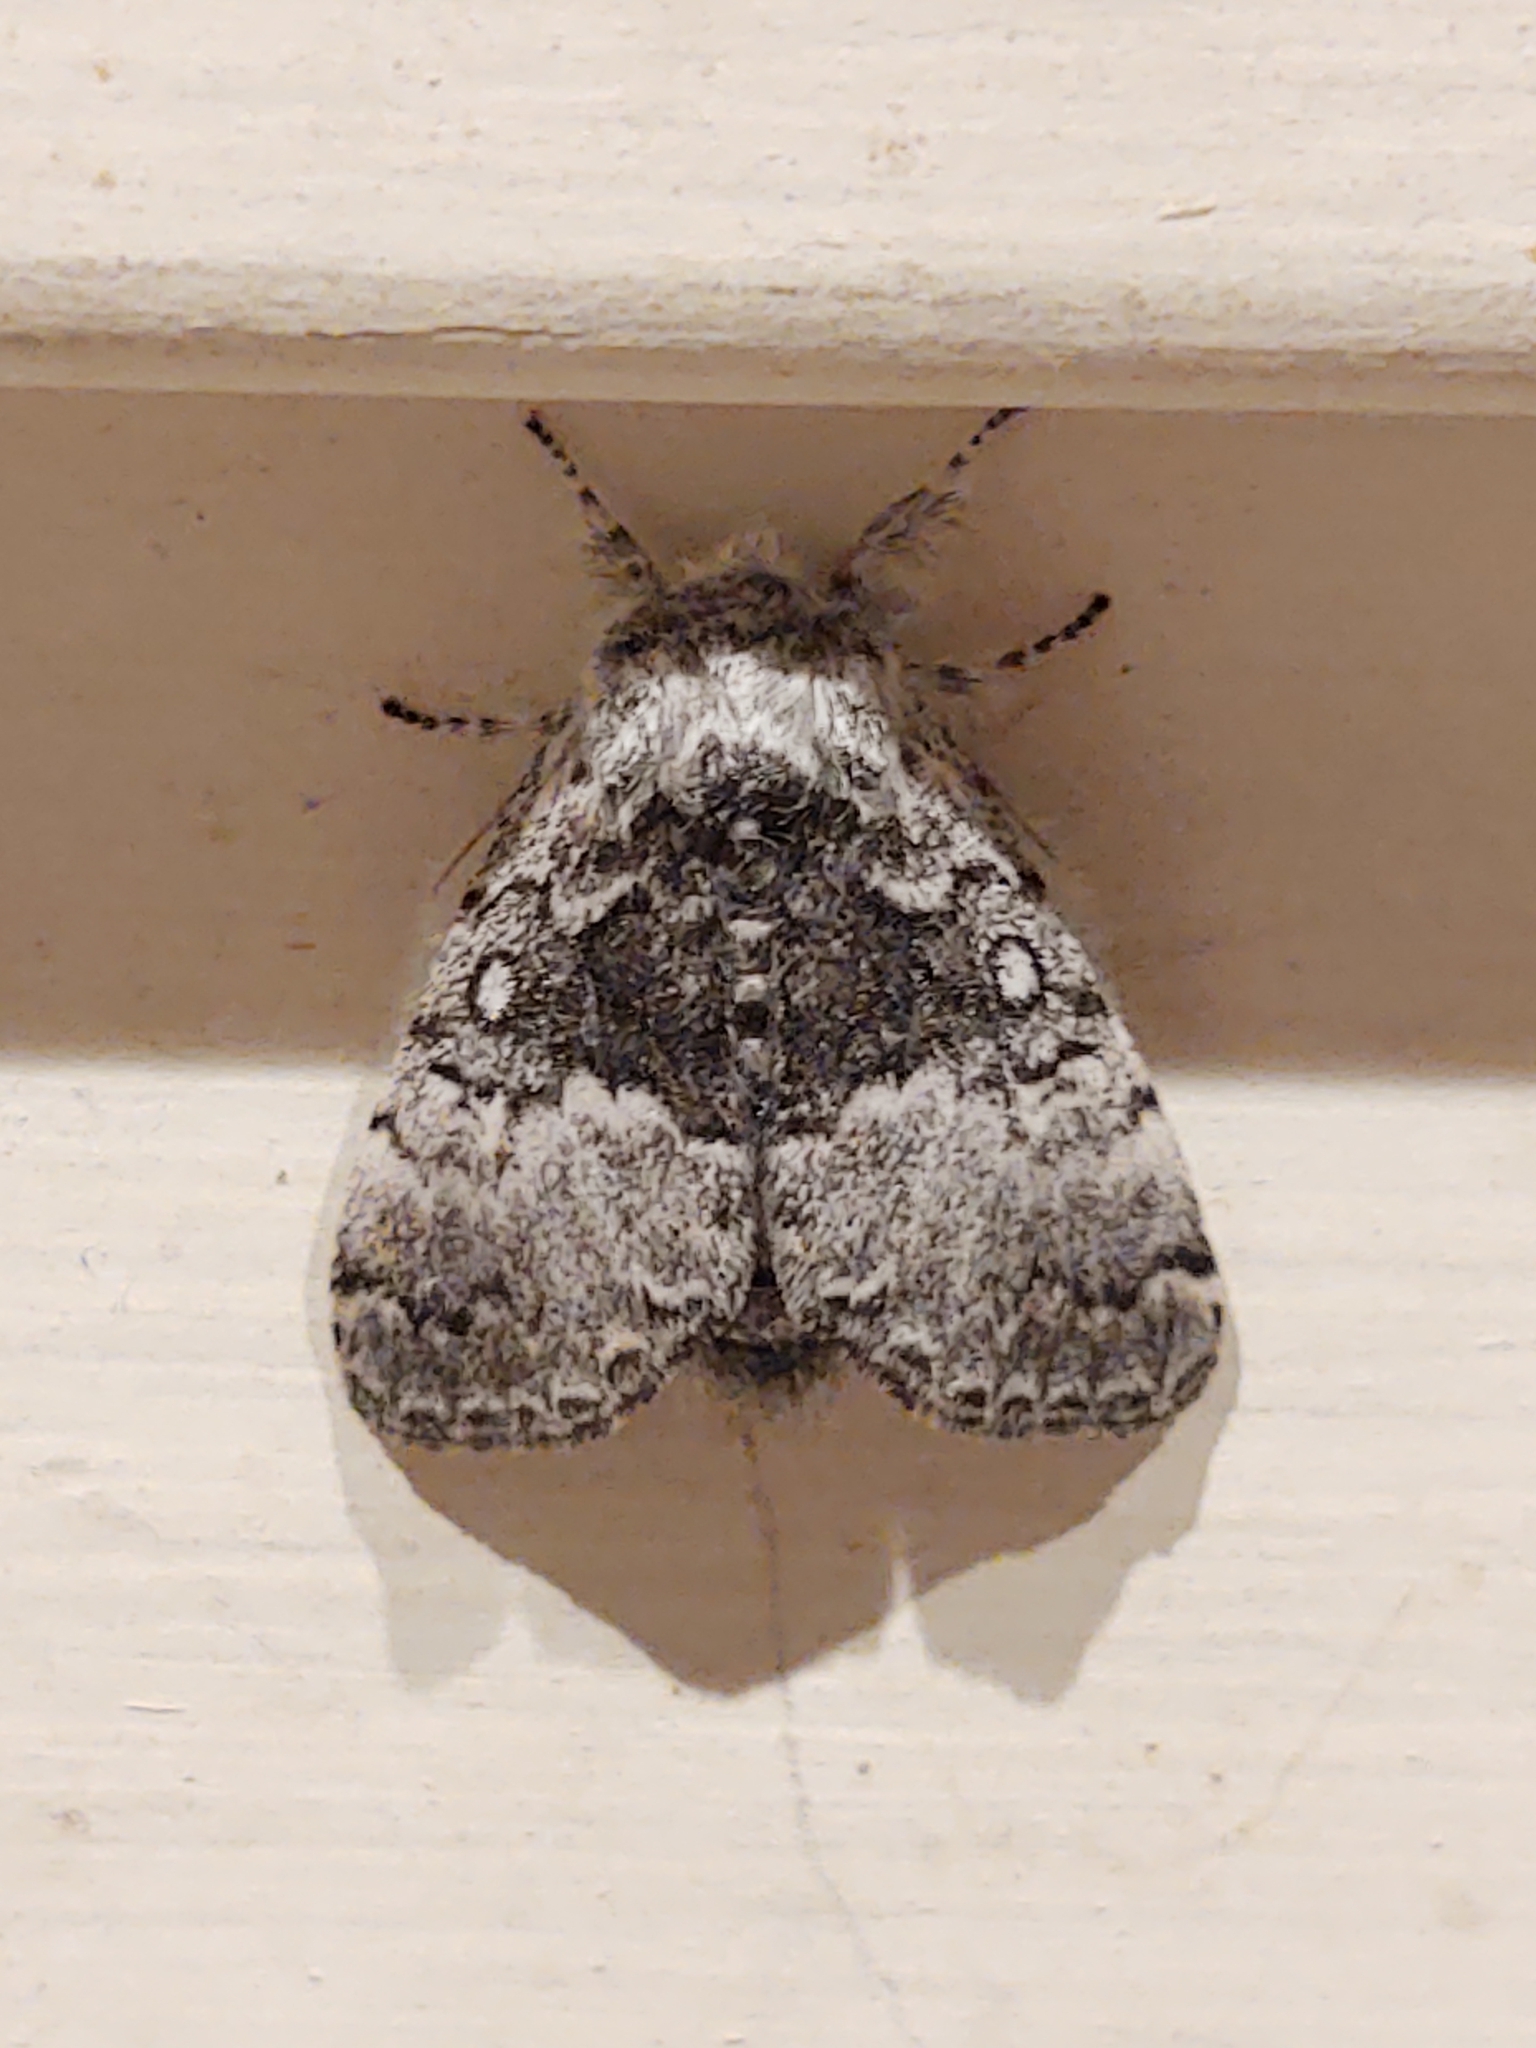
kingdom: Animalia
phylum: Arthropoda
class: Insecta
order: Lepidoptera
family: Noctuidae
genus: Colocasia
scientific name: Colocasia flavicornis
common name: Saddled yellowhorn
